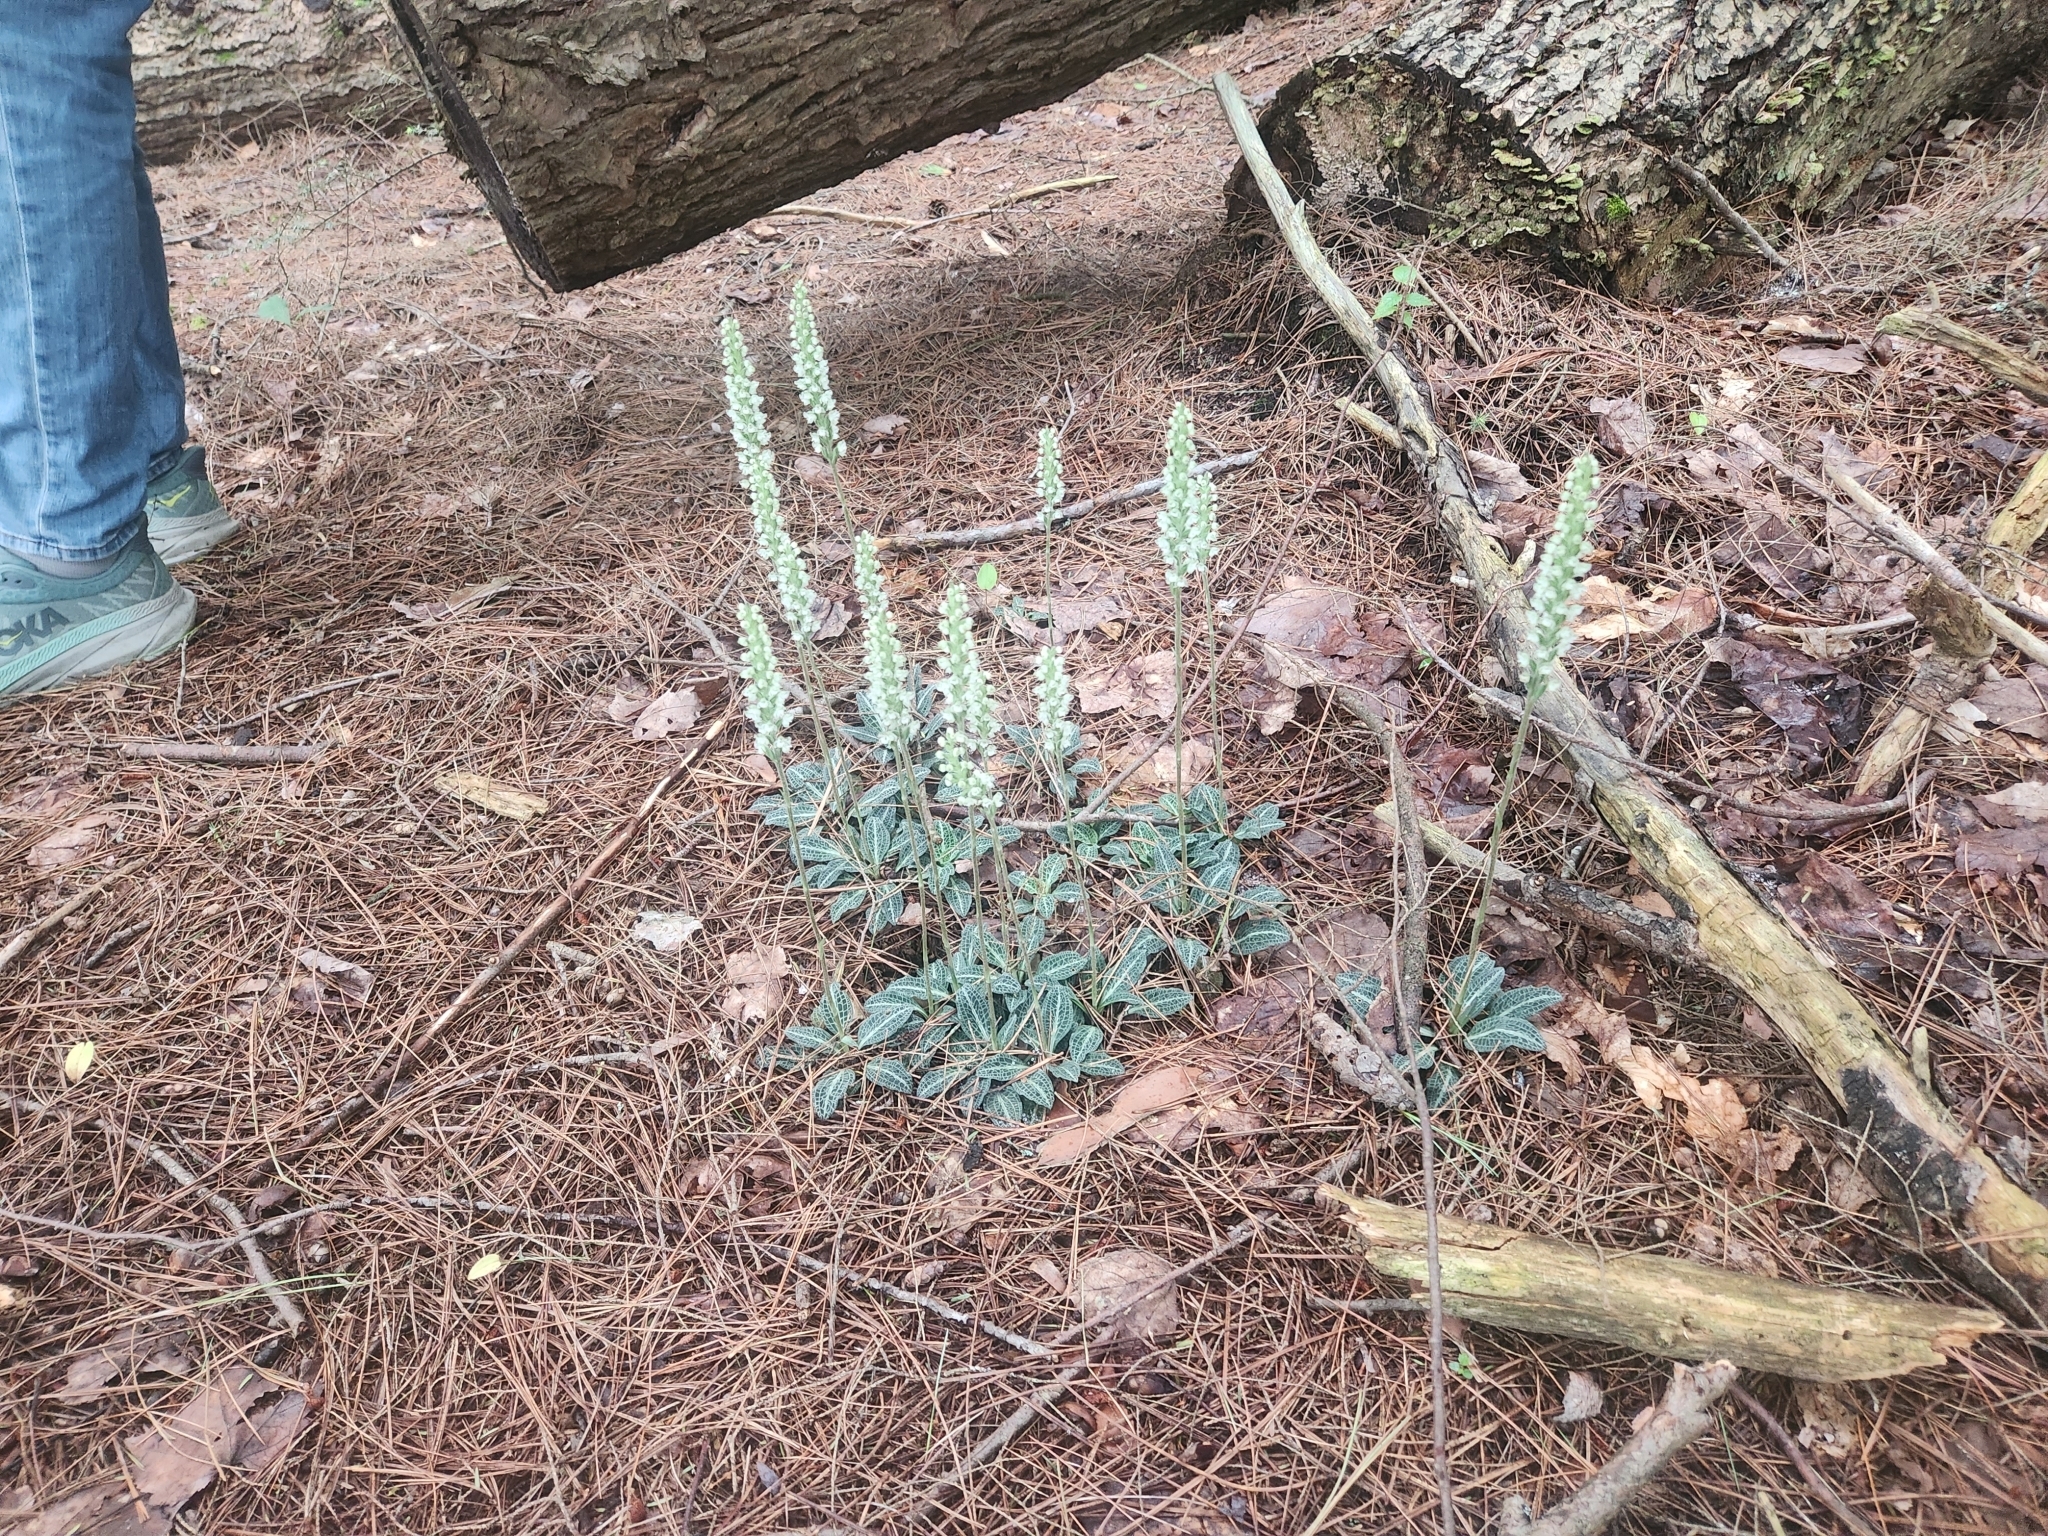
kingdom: Plantae
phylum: Tracheophyta
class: Liliopsida
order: Asparagales
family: Orchidaceae
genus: Goodyera
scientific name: Goodyera pubescens
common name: Downy rattlesnake-plantain
